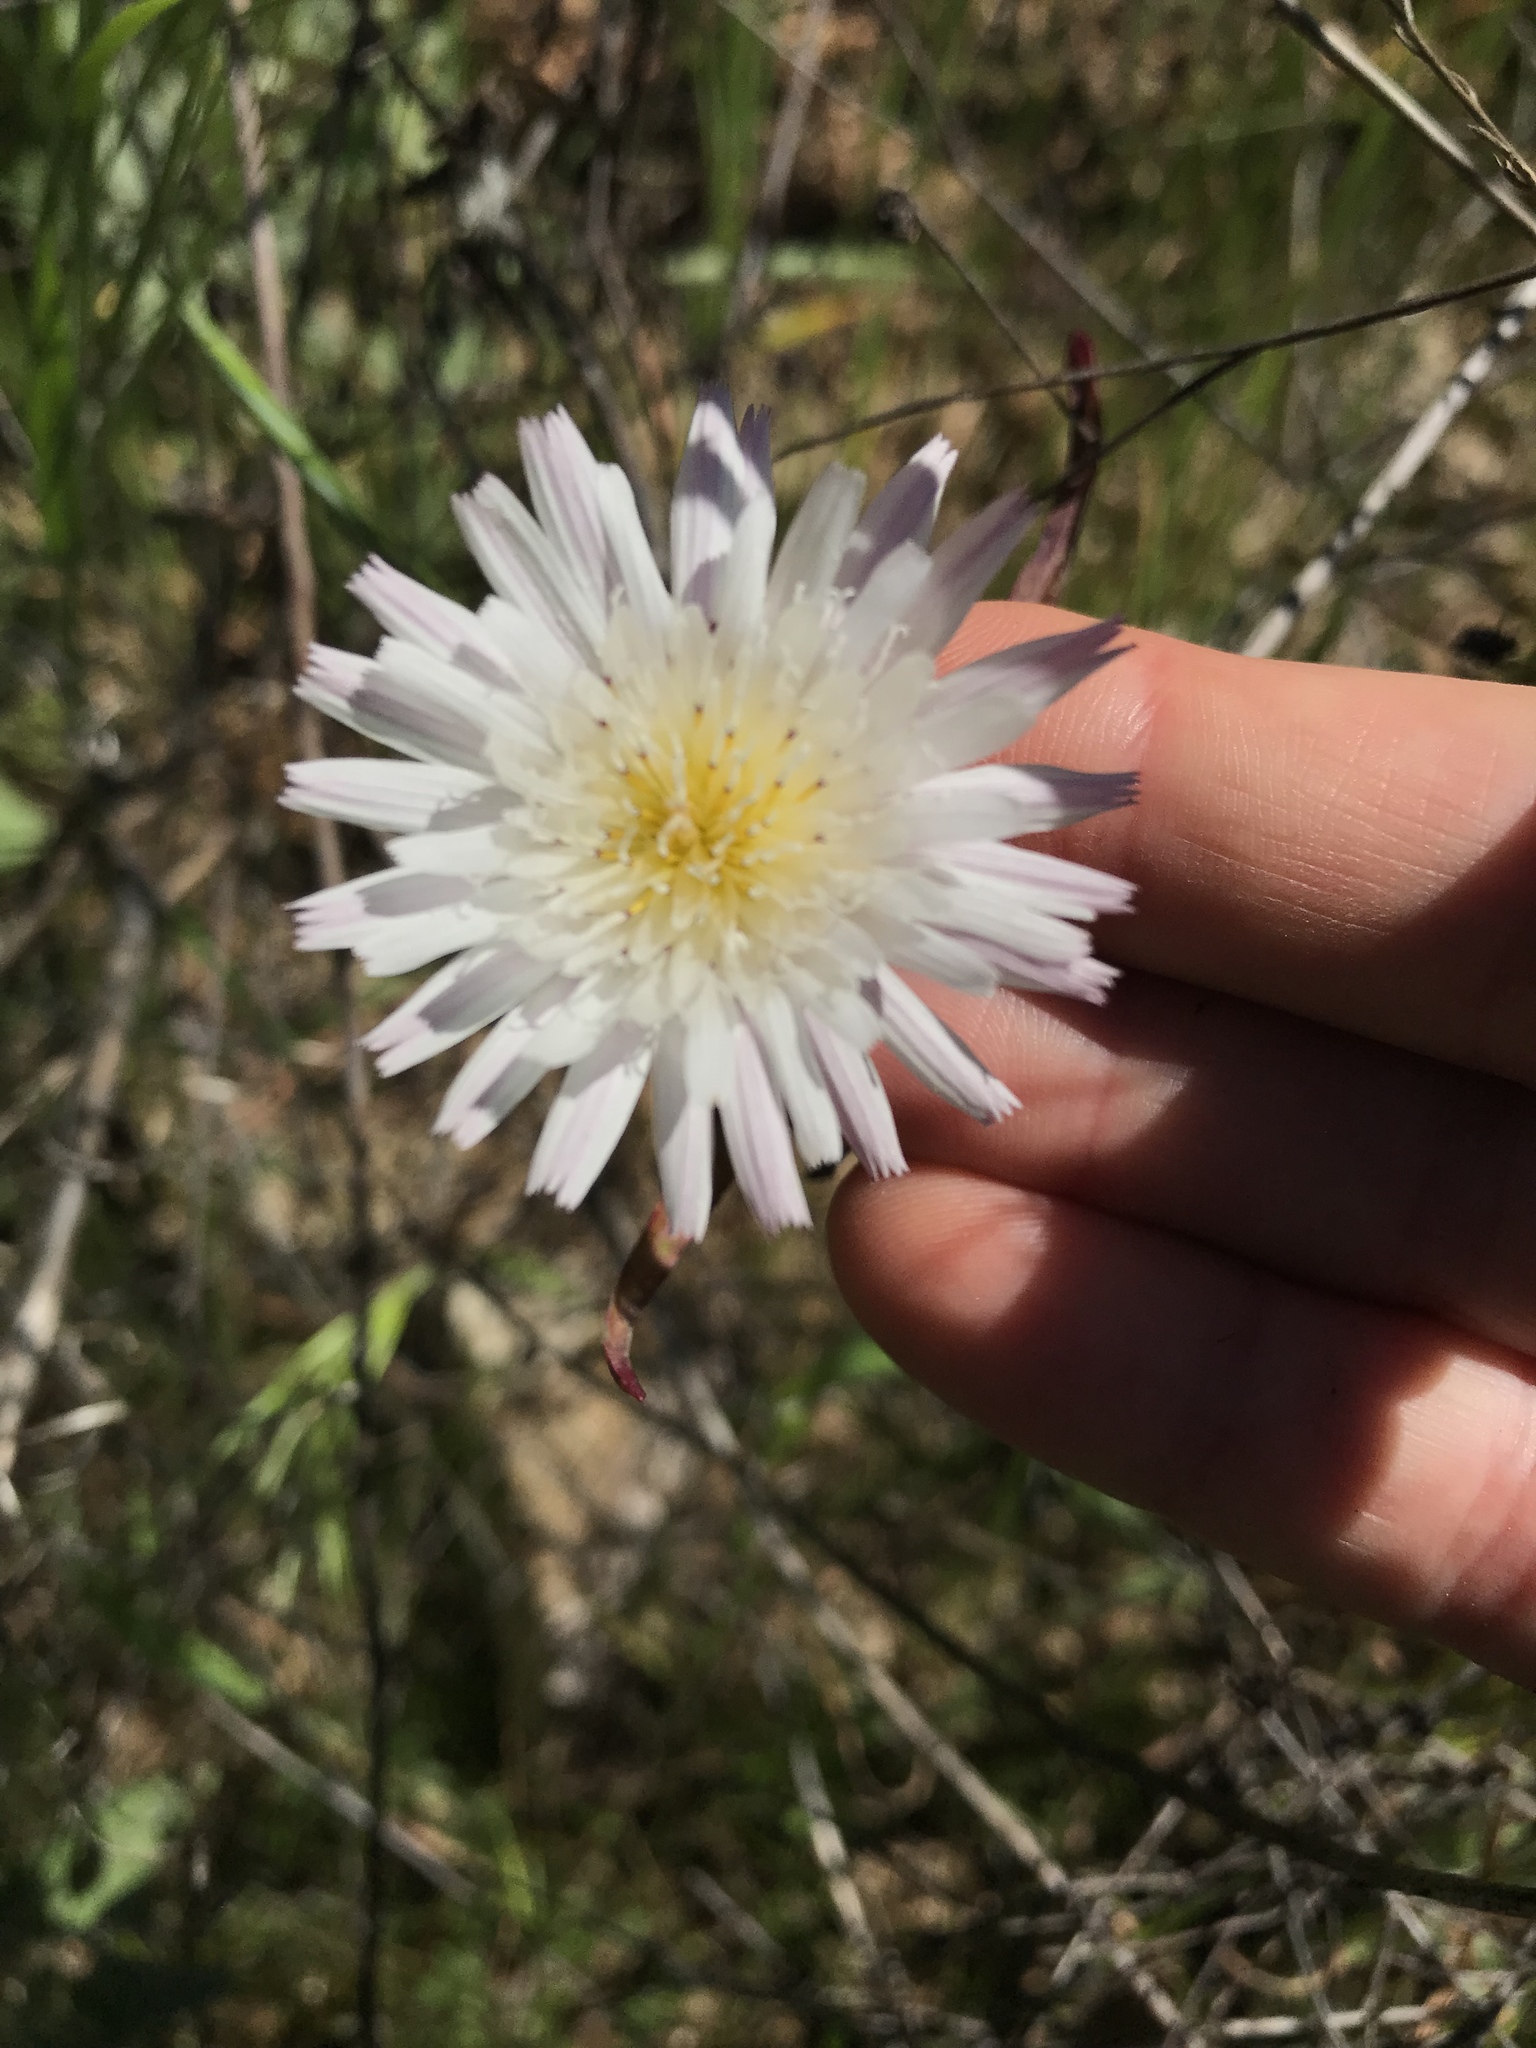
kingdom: Plantae
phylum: Tracheophyta
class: Magnoliopsida
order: Asterales
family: Asteraceae
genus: Malacothrix
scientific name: Malacothrix saxatilis
